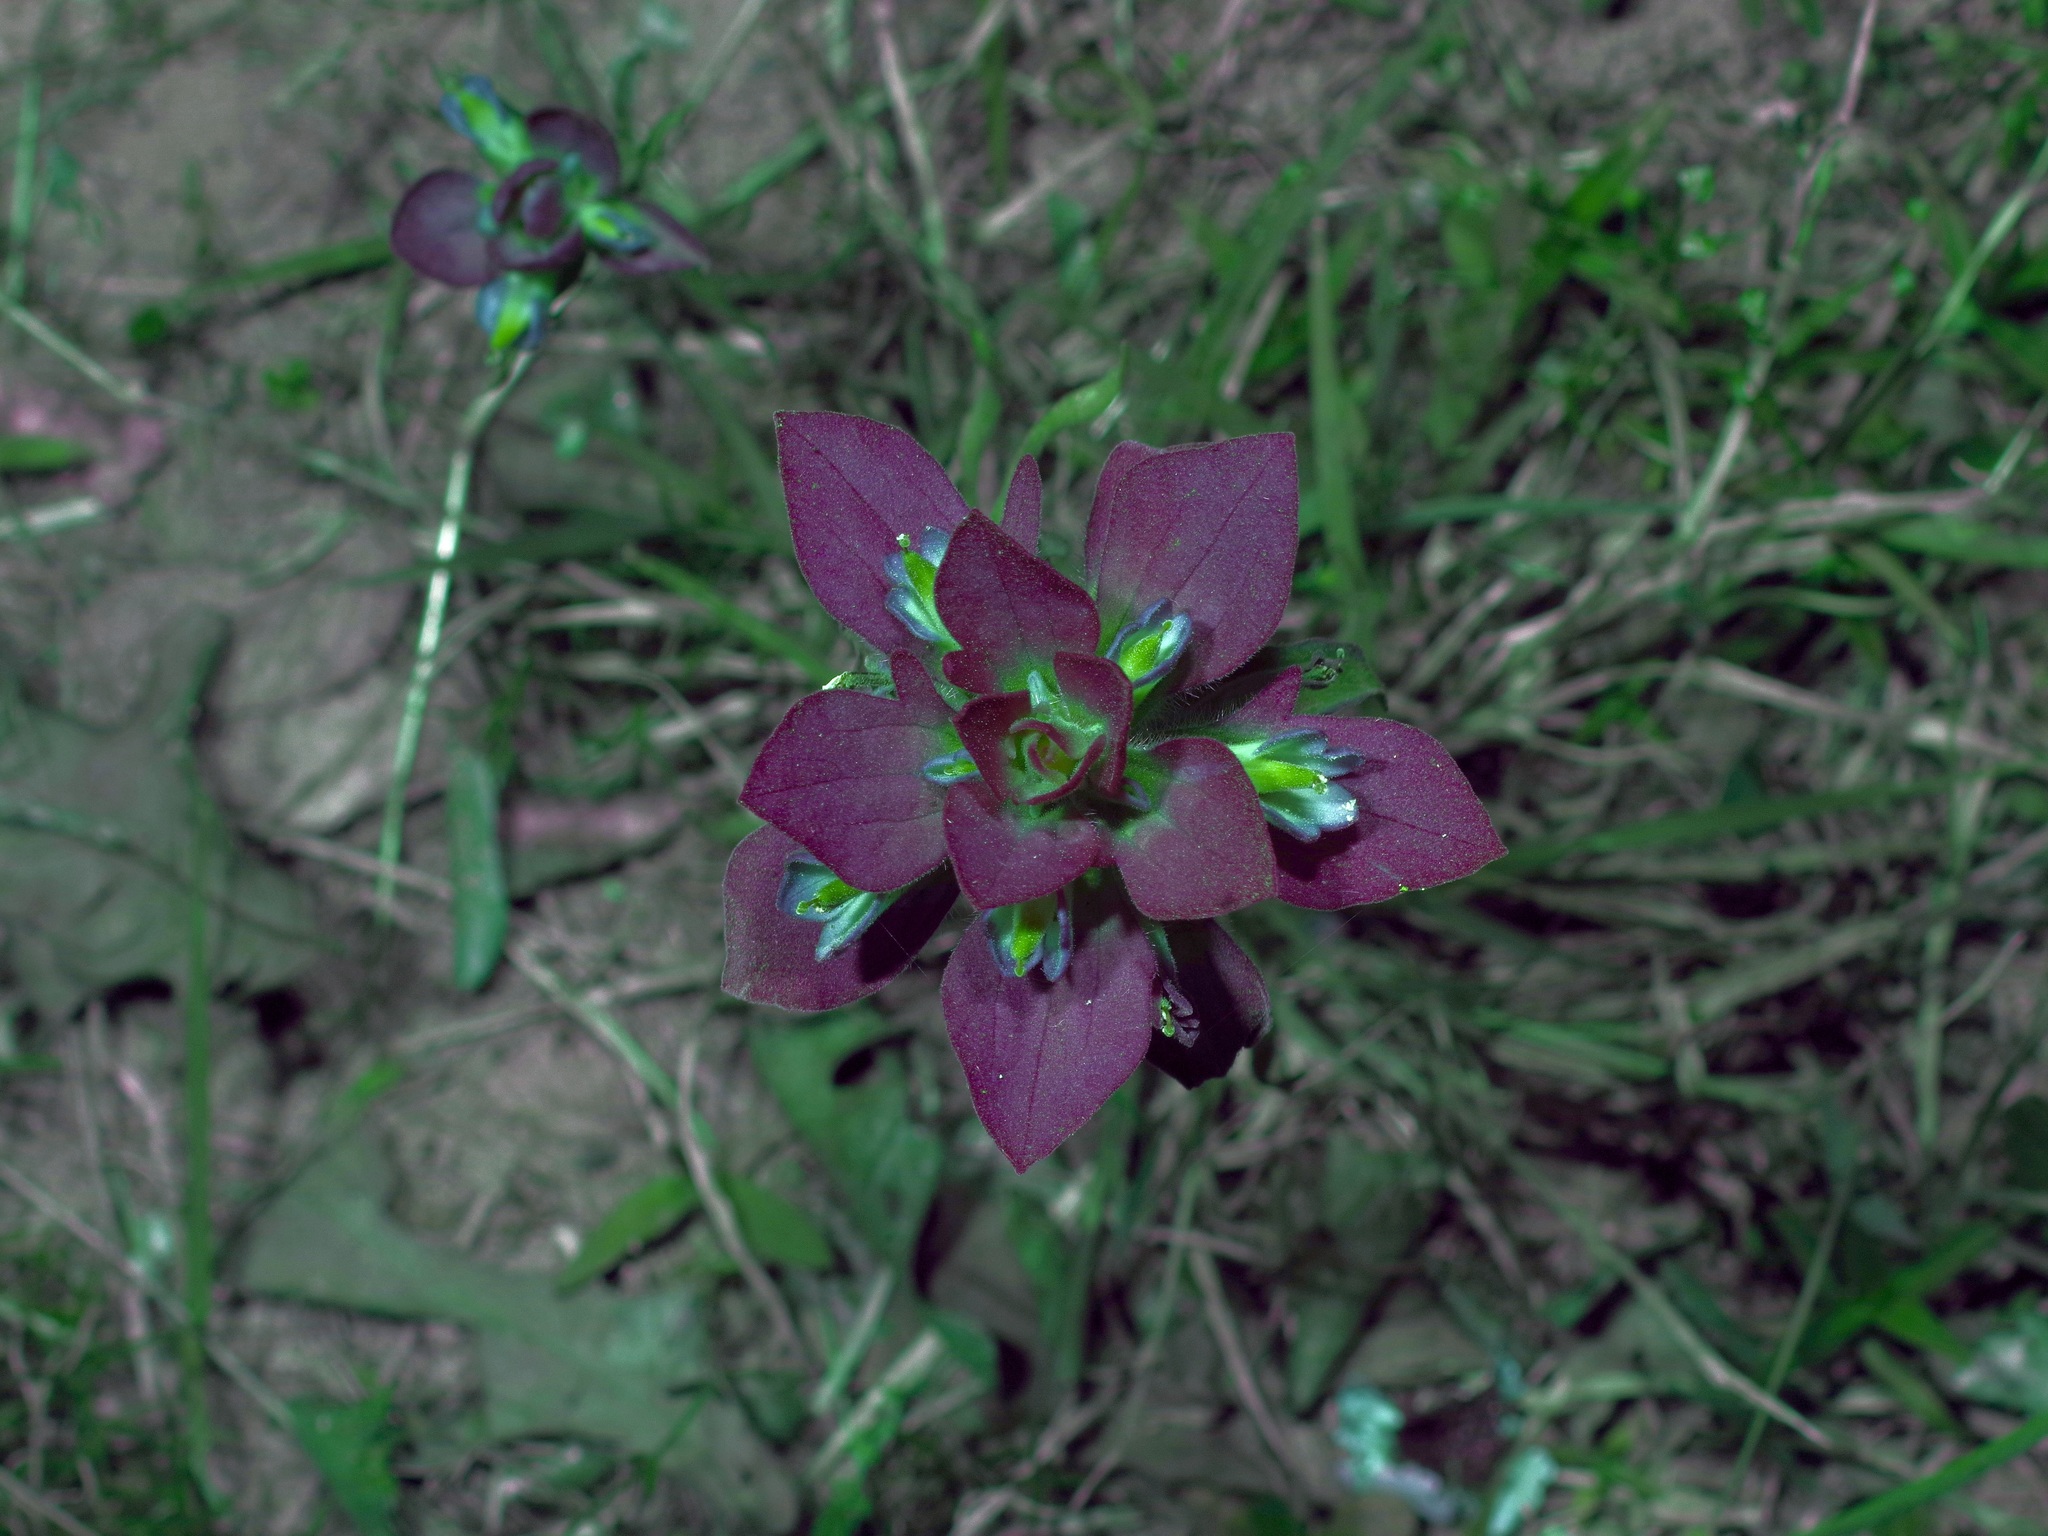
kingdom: Plantae
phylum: Tracheophyta
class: Magnoliopsida
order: Lamiales
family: Orobanchaceae
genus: Castilleja
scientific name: Castilleja indivisa
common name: Texas paintbrush
